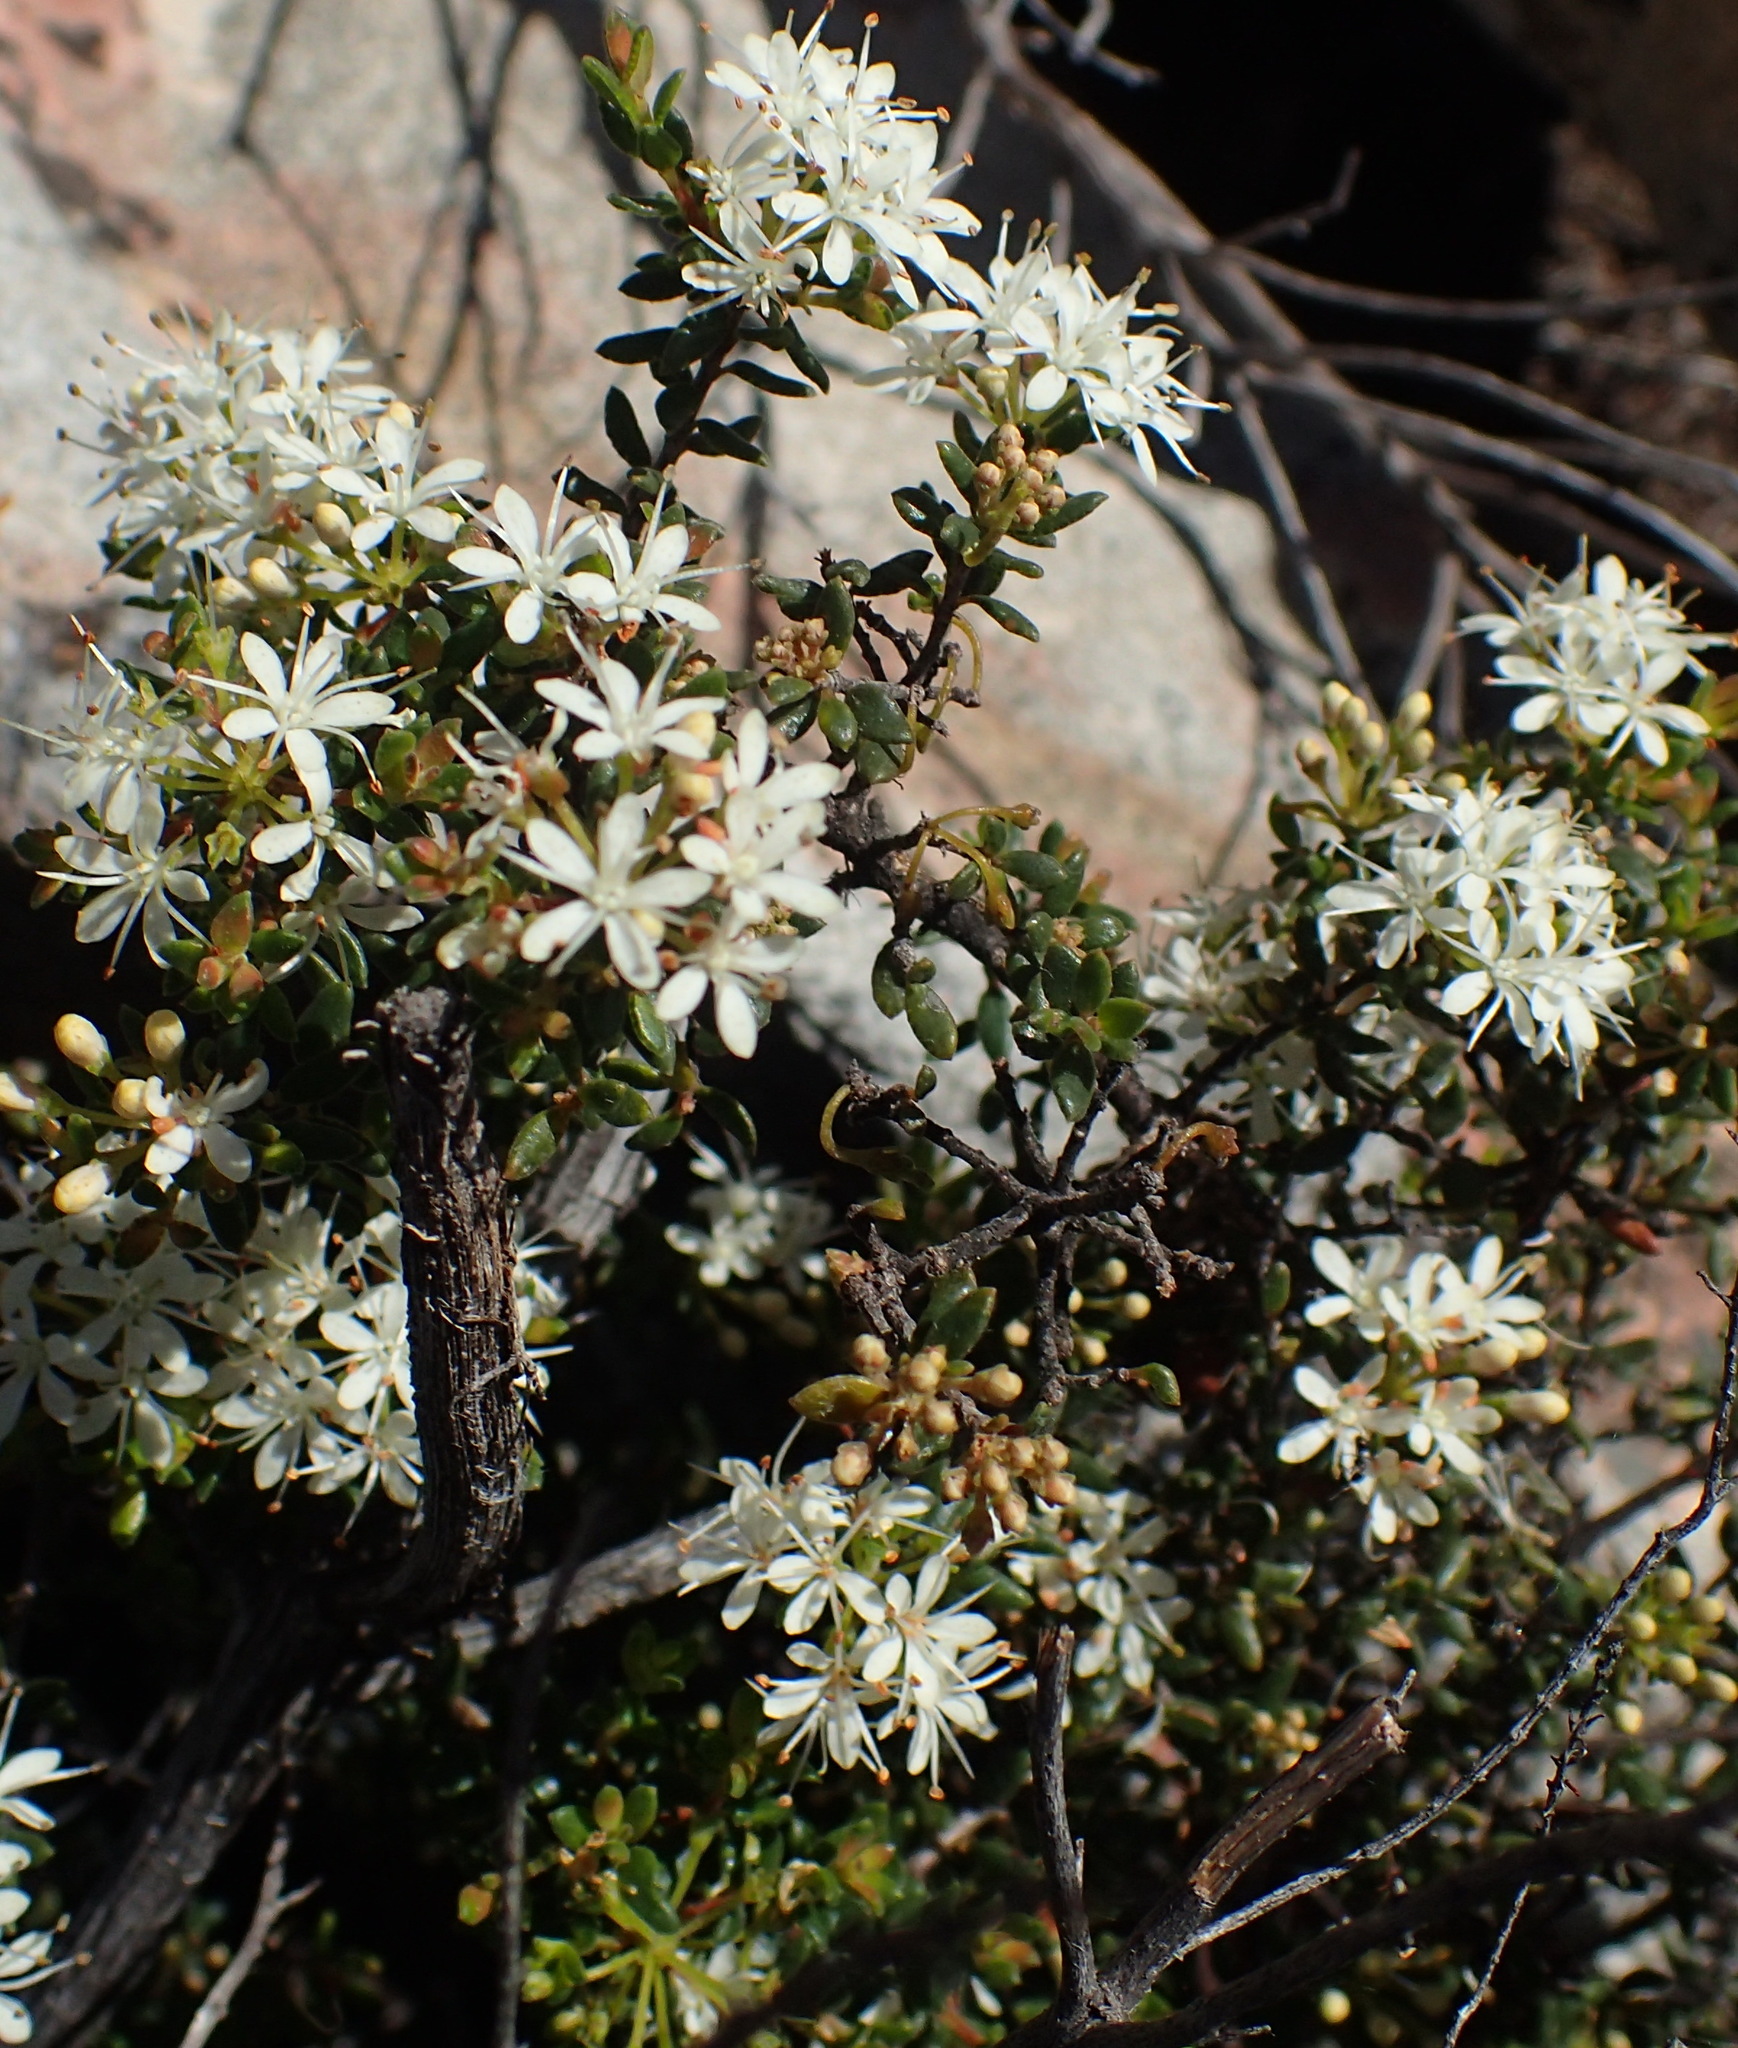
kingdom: Plantae
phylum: Tracheophyta
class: Magnoliopsida
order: Sapindales
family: Rutaceae
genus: Agathosma
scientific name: Agathosma mundtii
